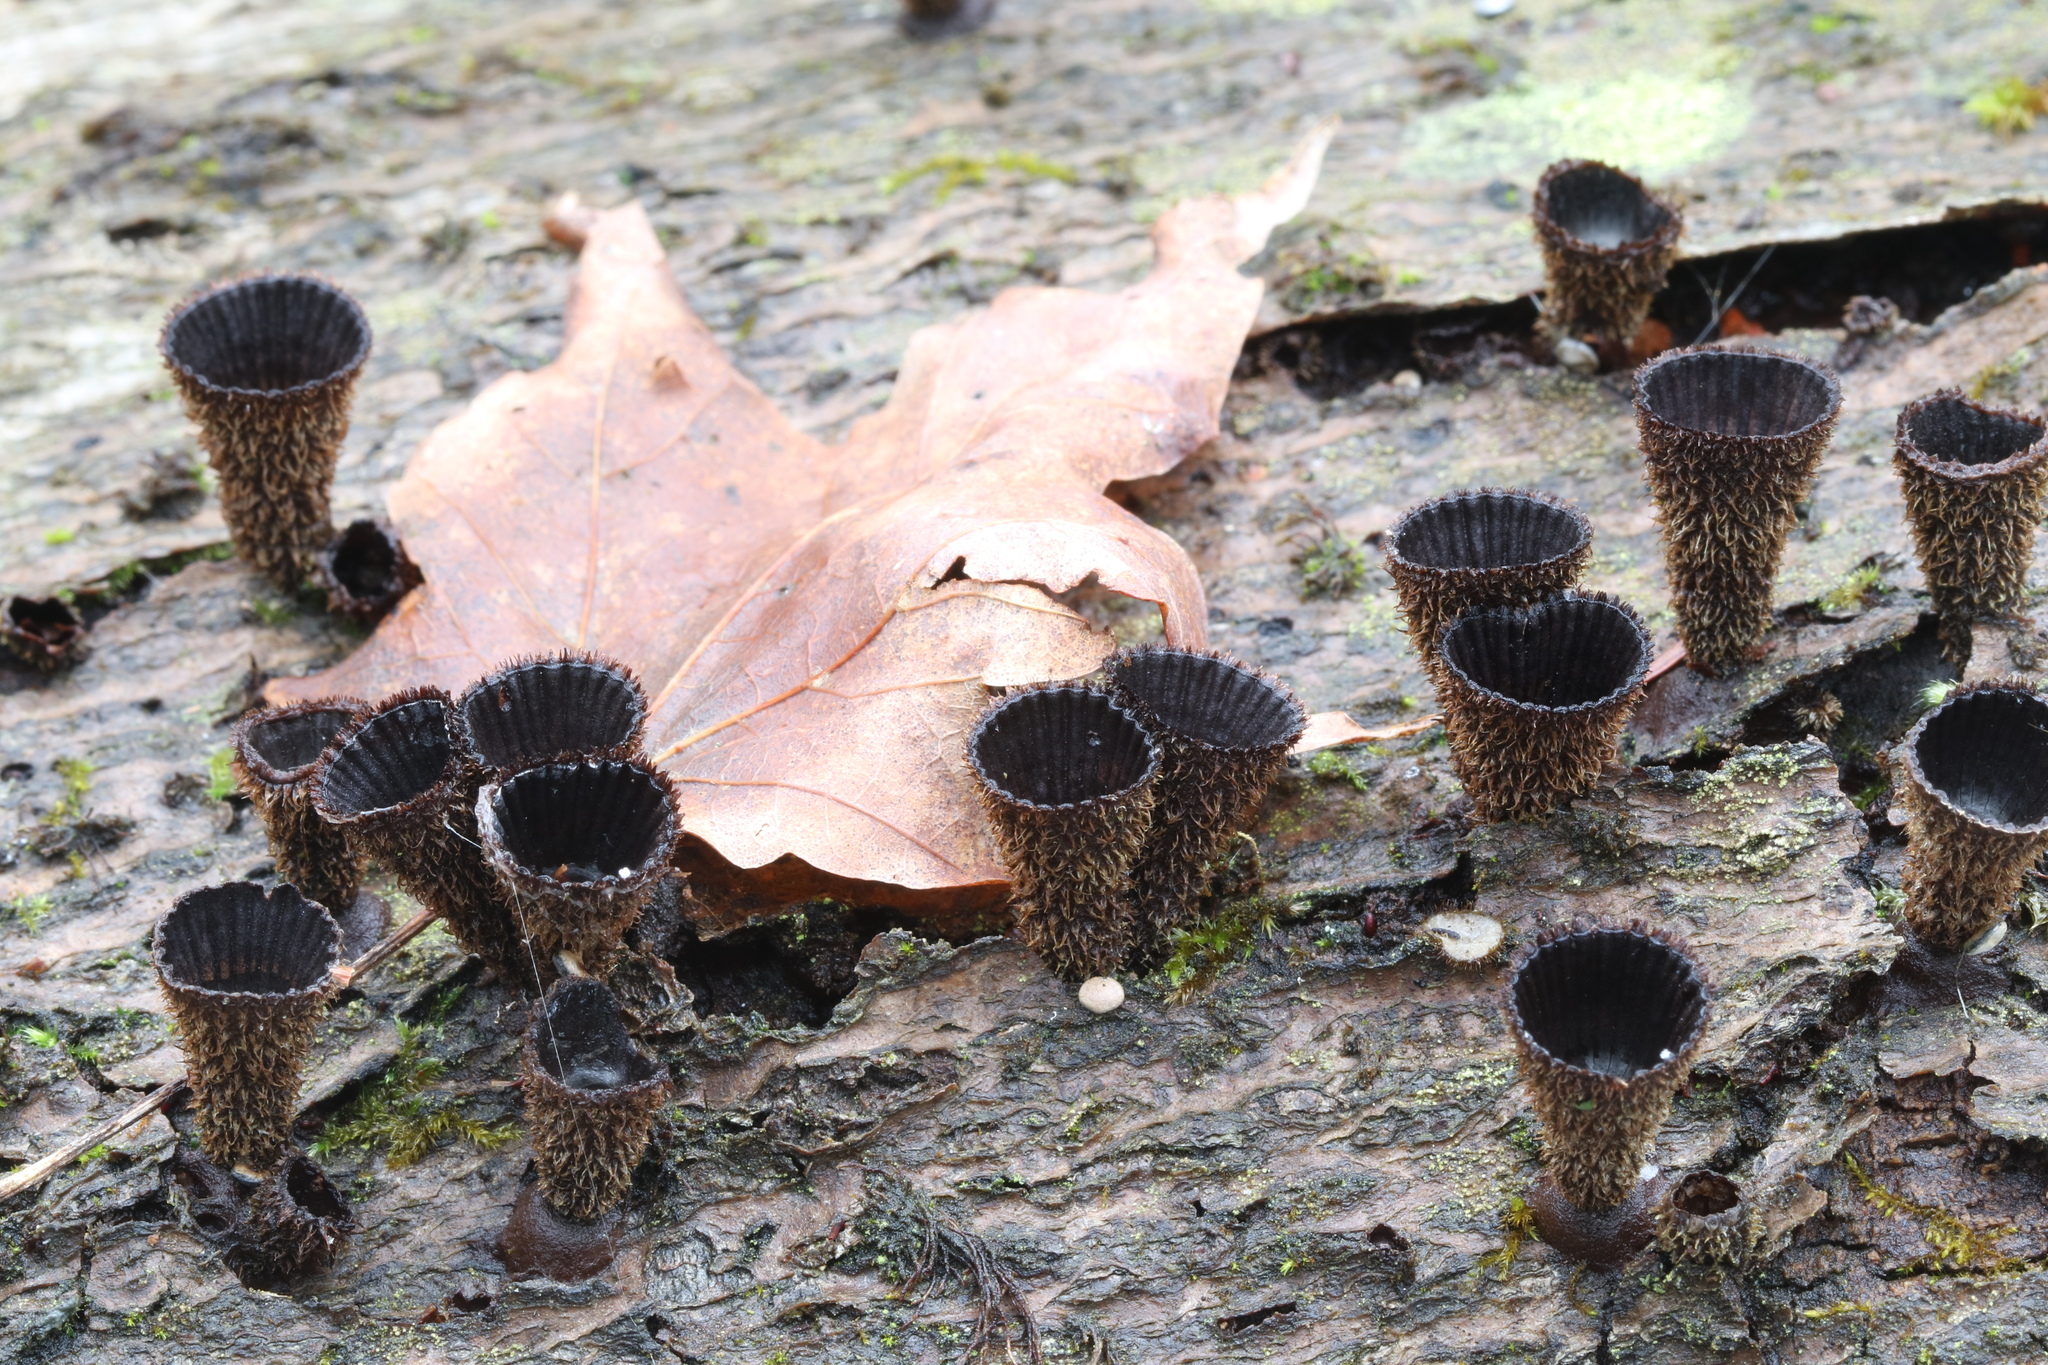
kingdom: Fungi
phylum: Basidiomycota
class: Agaricomycetes
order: Agaricales
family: Agaricaceae
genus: Cyathus
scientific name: Cyathus striatus
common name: Fluted bird's nest
